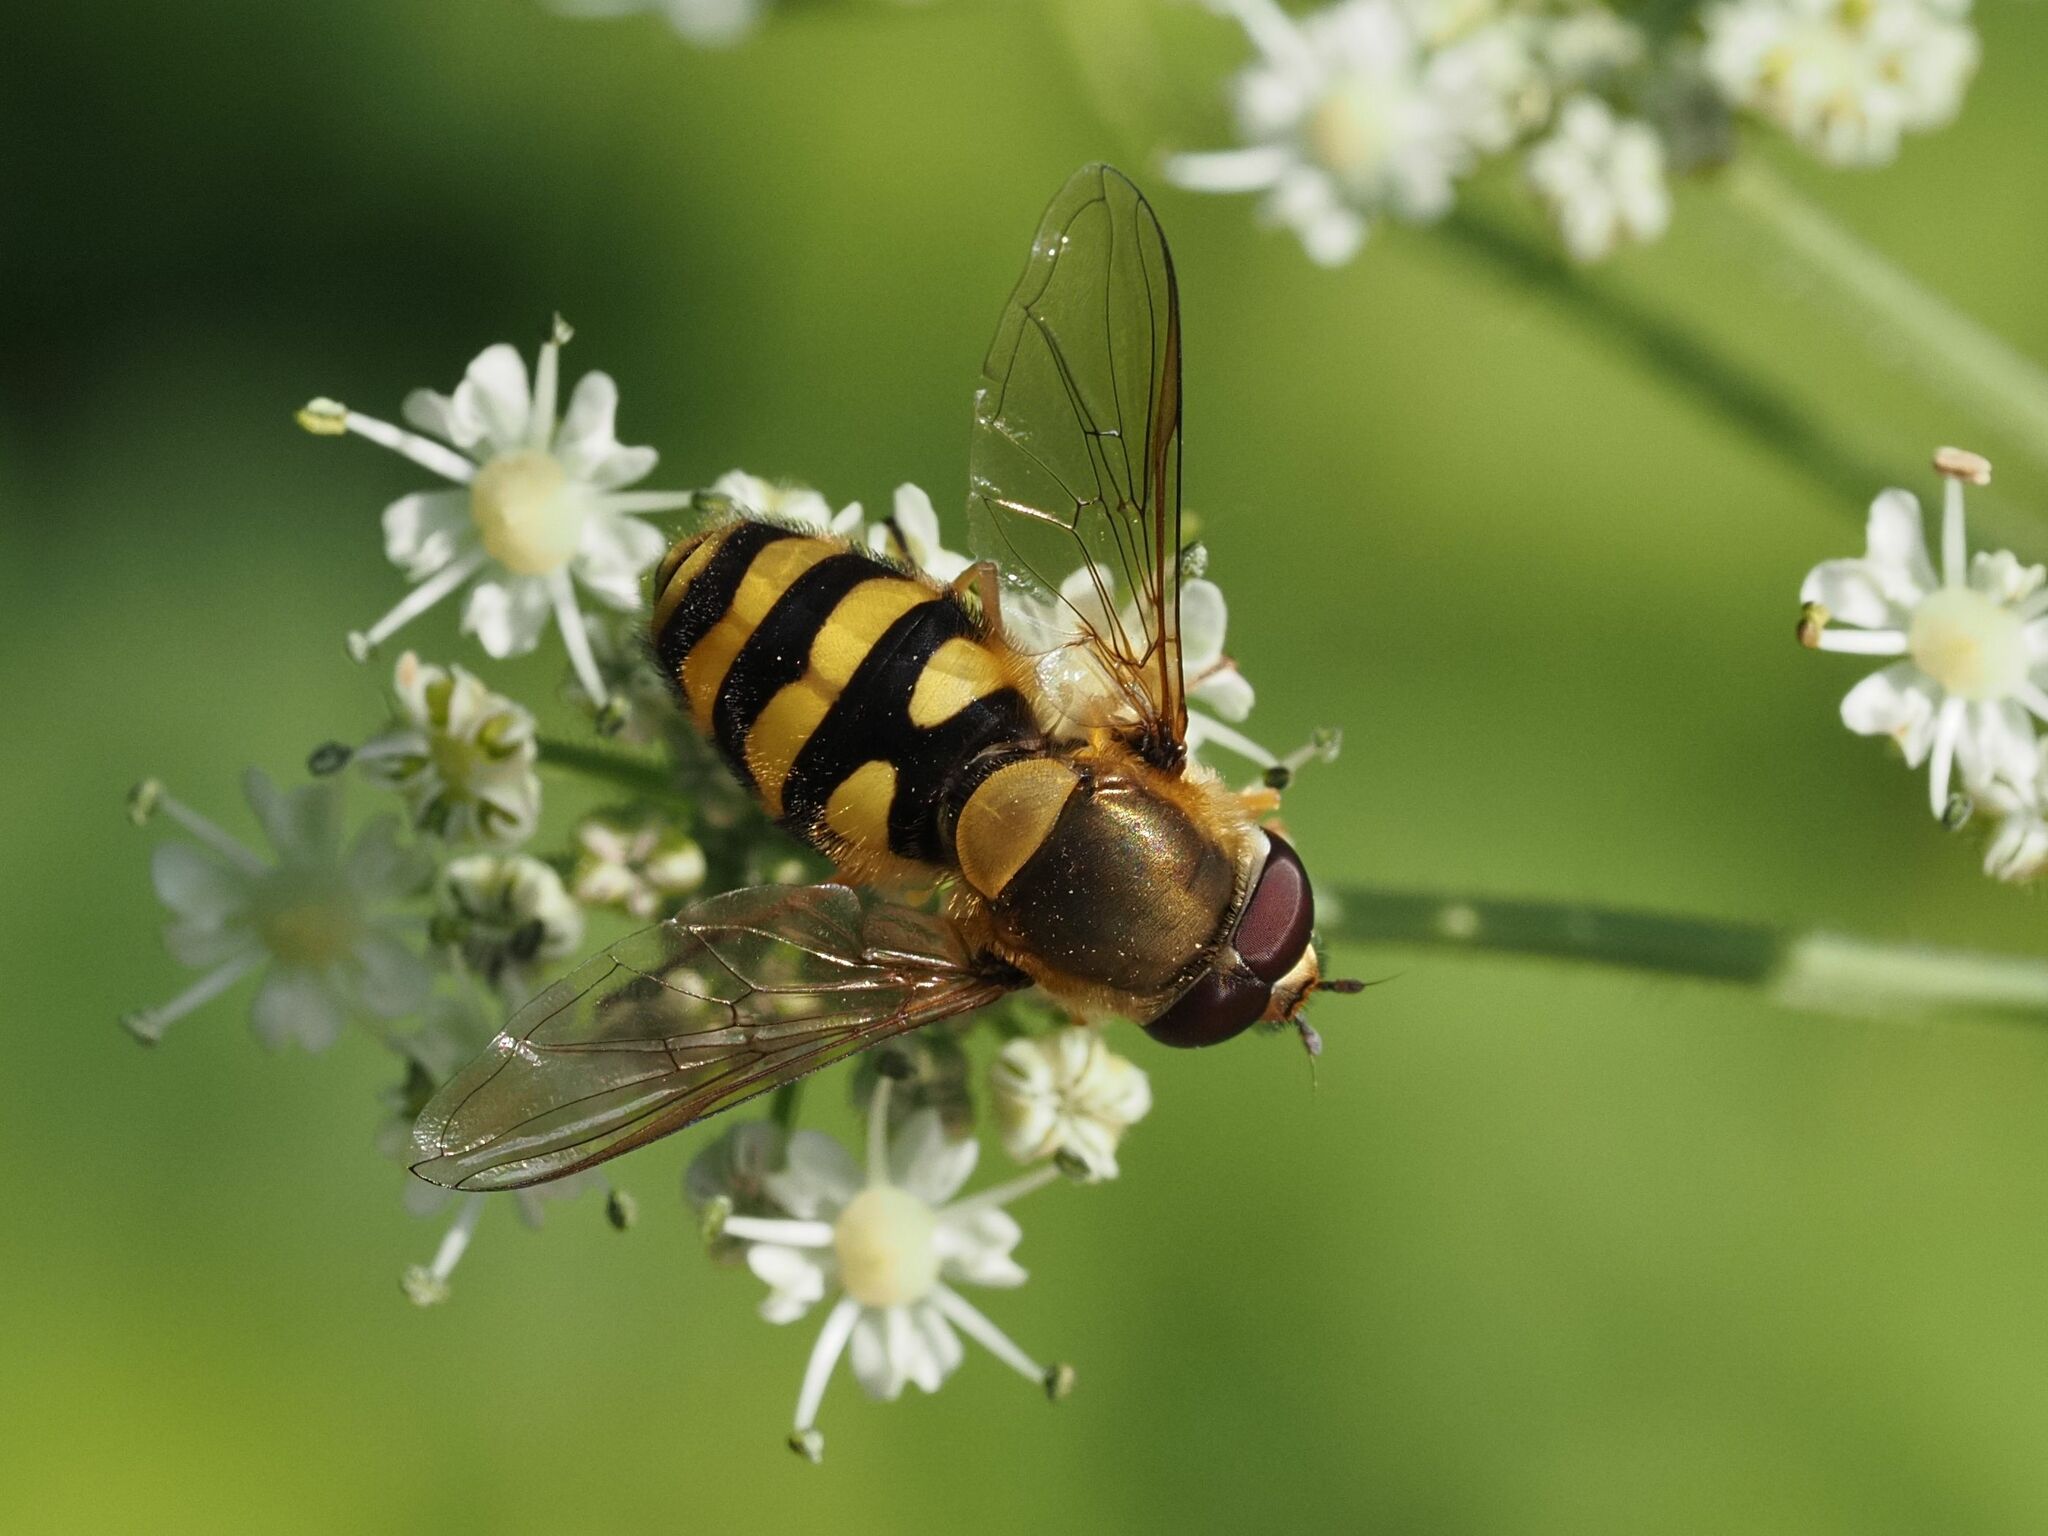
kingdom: Animalia
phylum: Arthropoda
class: Insecta
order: Diptera
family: Syrphidae
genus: Syrphus
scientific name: Syrphus
